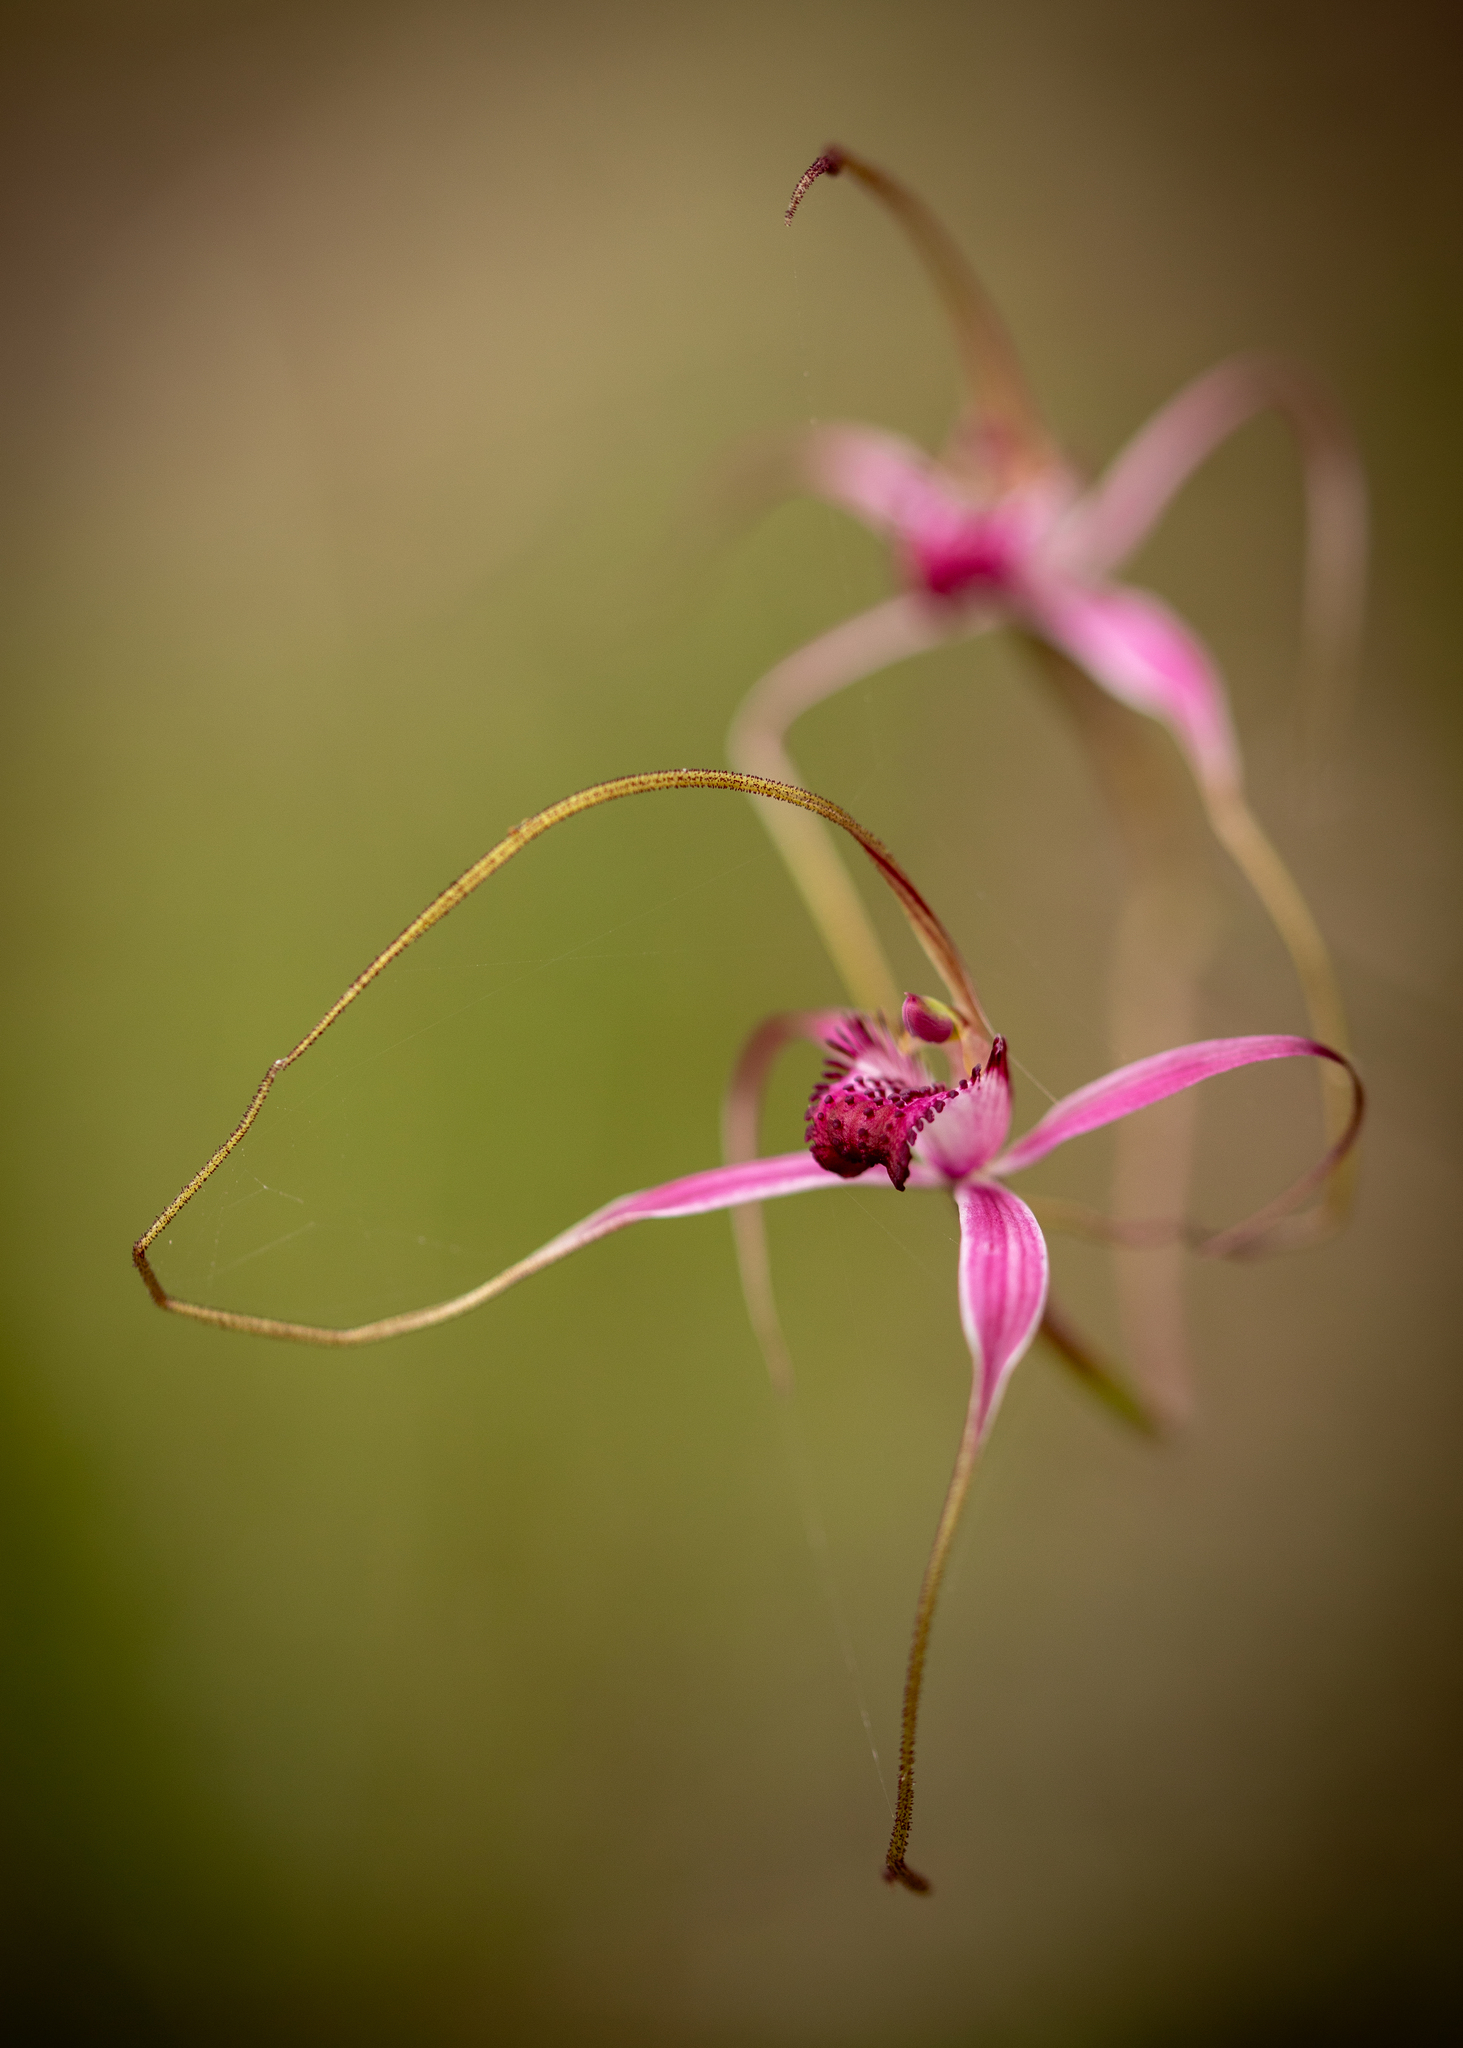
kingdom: Plantae
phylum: Tracheophyta
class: Liliopsida
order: Asparagales
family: Orchidaceae
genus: Caladenia
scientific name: Caladenia harringtoniae
